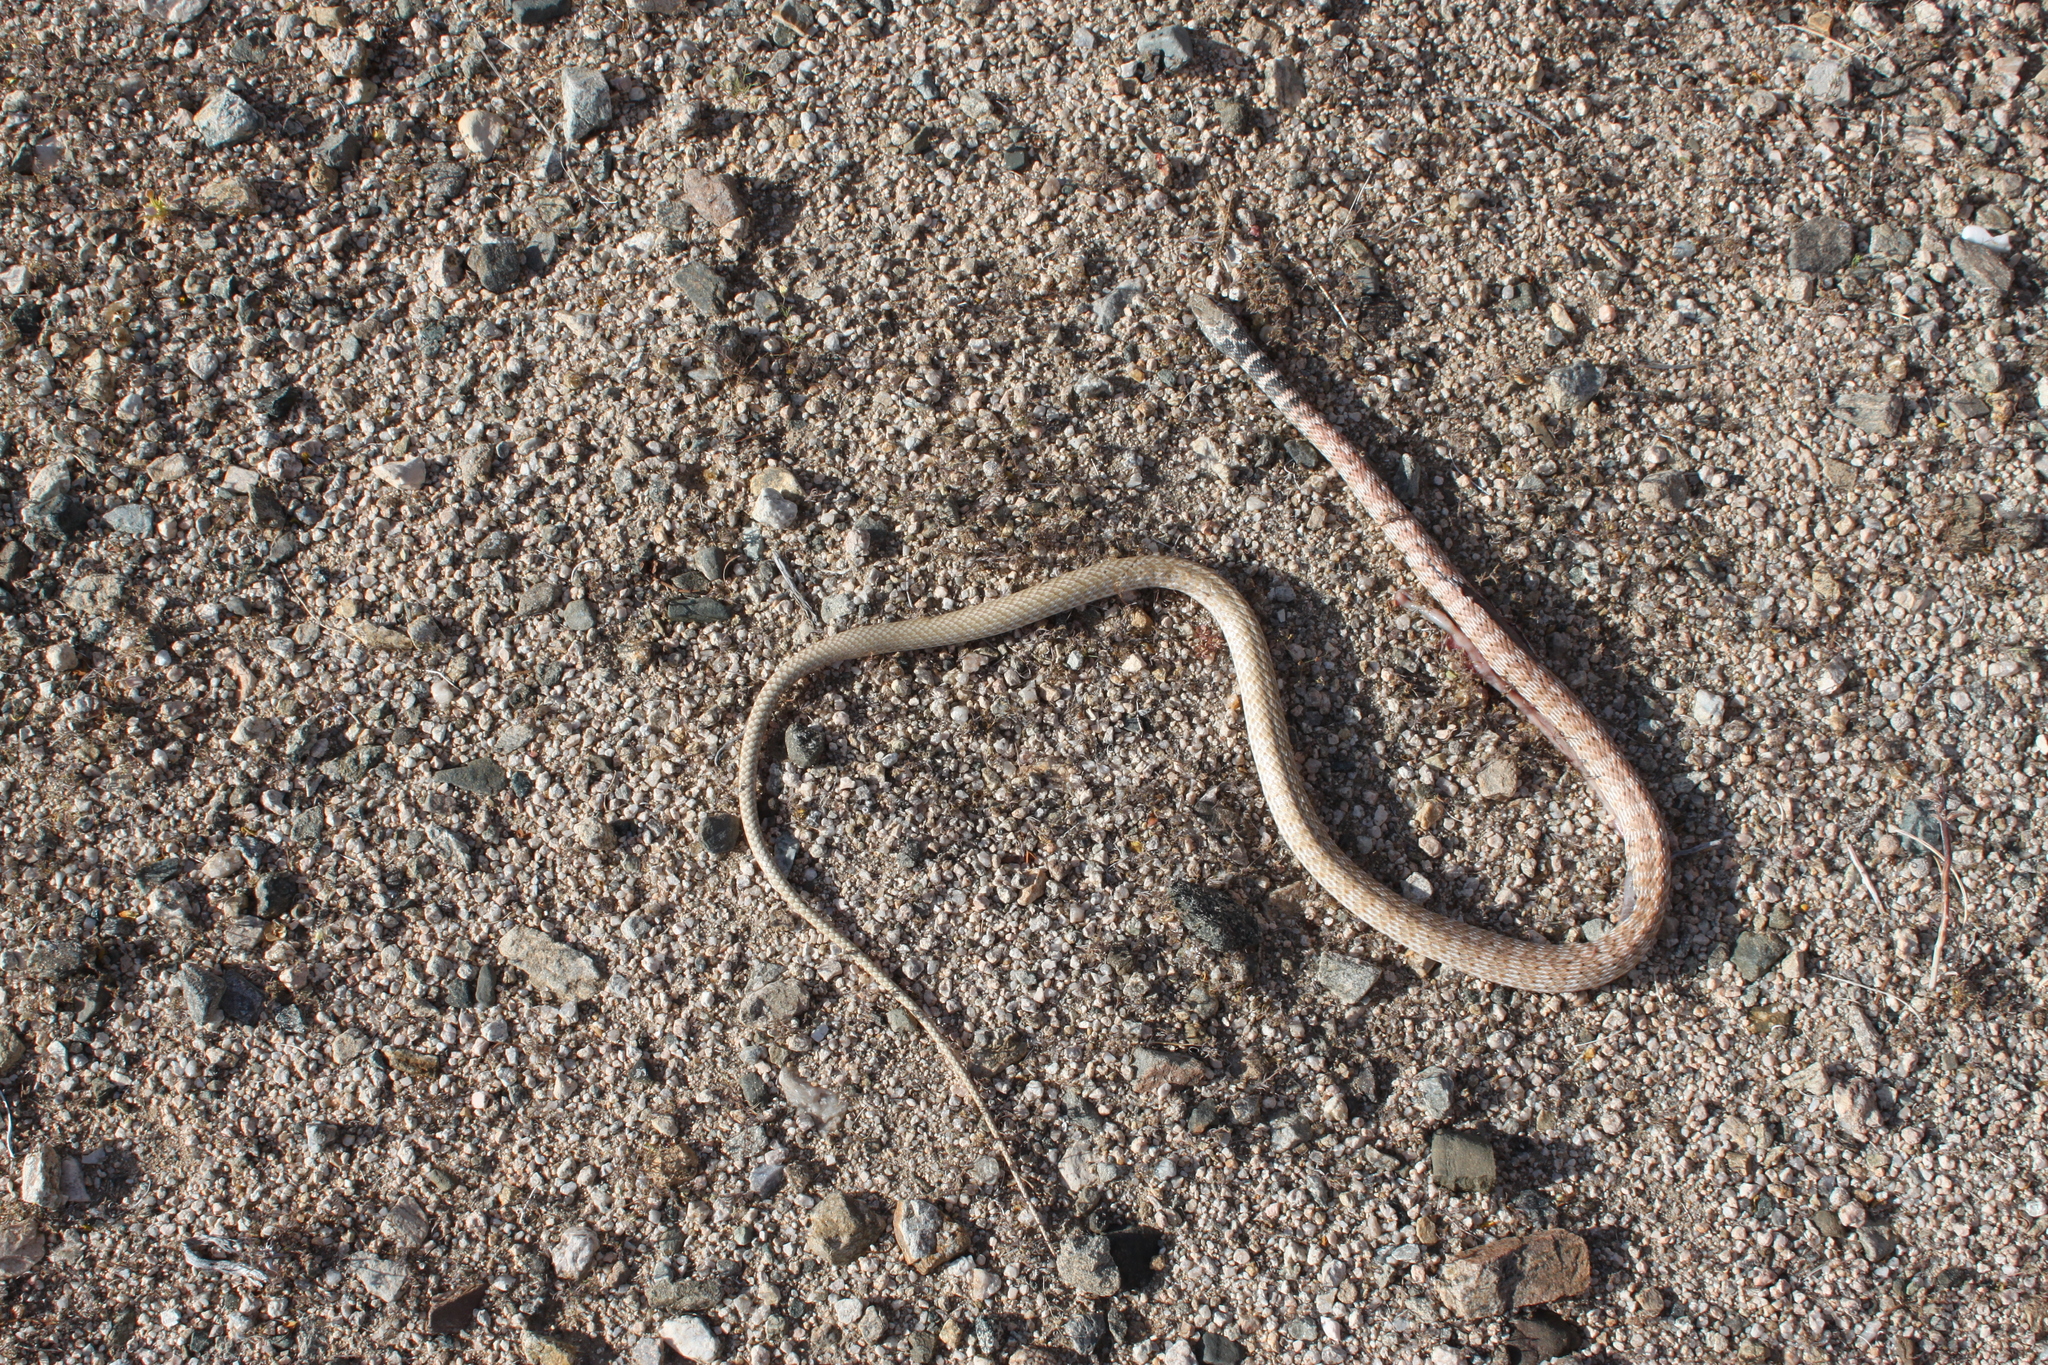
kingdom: Animalia
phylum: Chordata
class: Squamata
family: Colubridae
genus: Masticophis
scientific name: Masticophis flagellum
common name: Coachwhip
